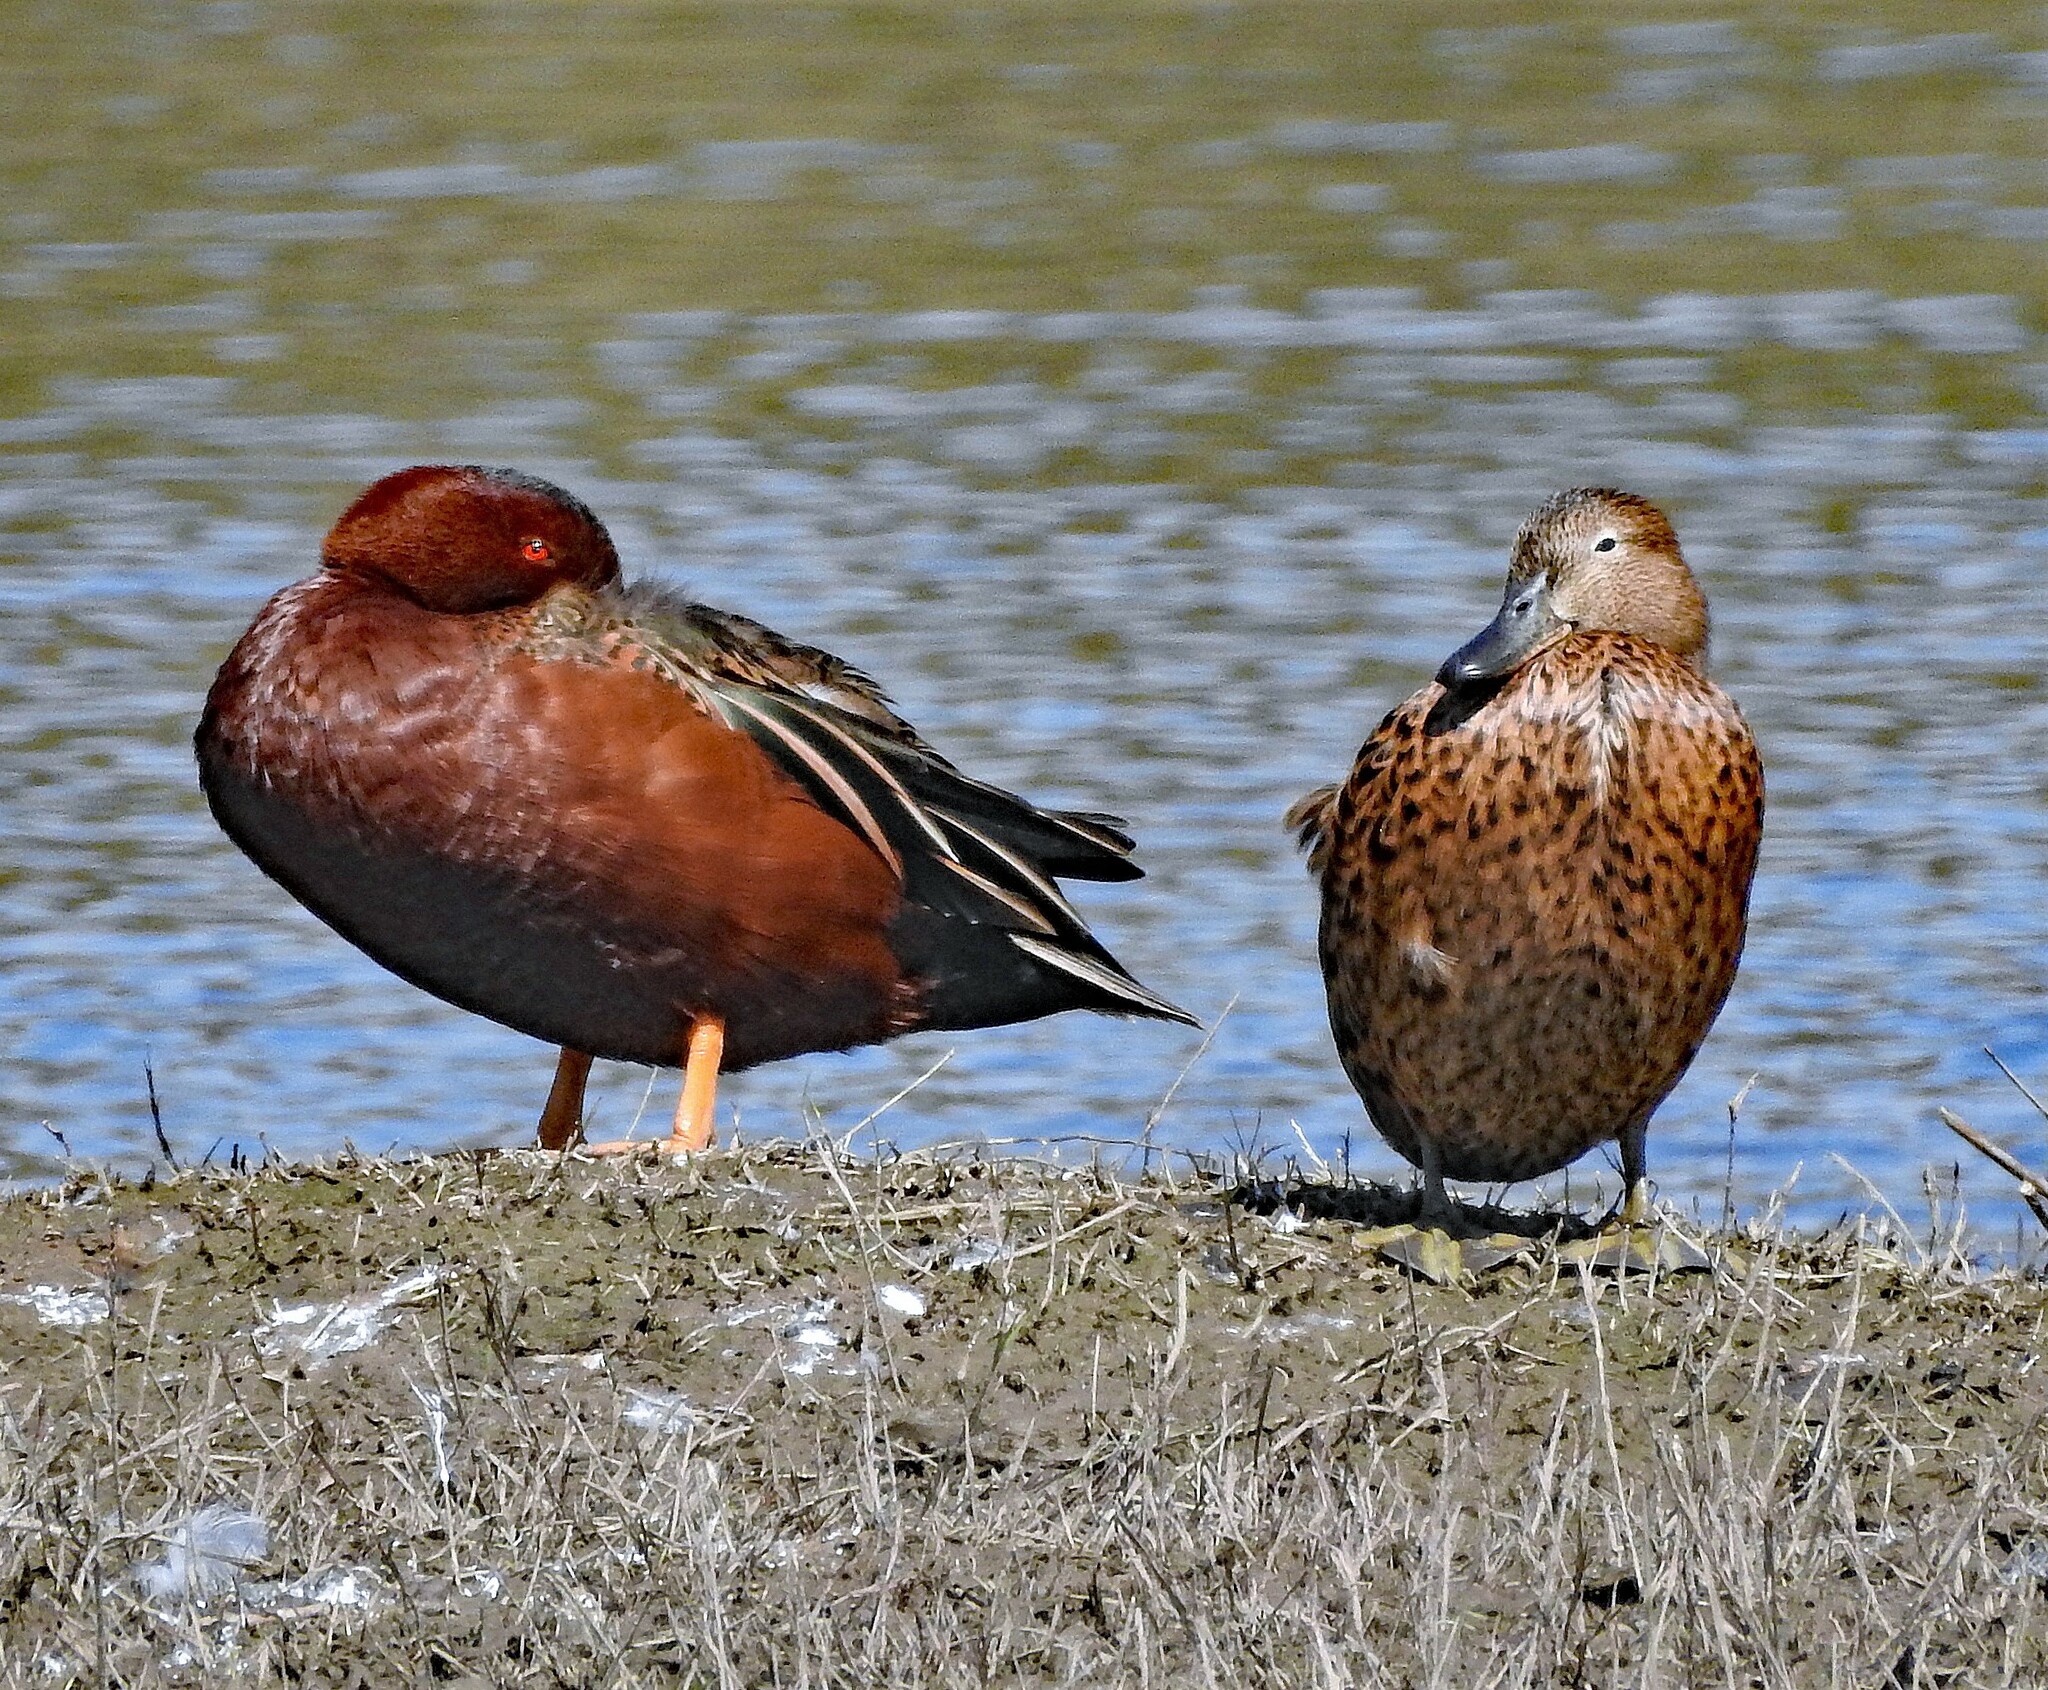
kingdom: Animalia
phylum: Chordata
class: Aves
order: Anseriformes
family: Anatidae
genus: Spatula
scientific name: Spatula cyanoptera
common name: Cinnamon teal
